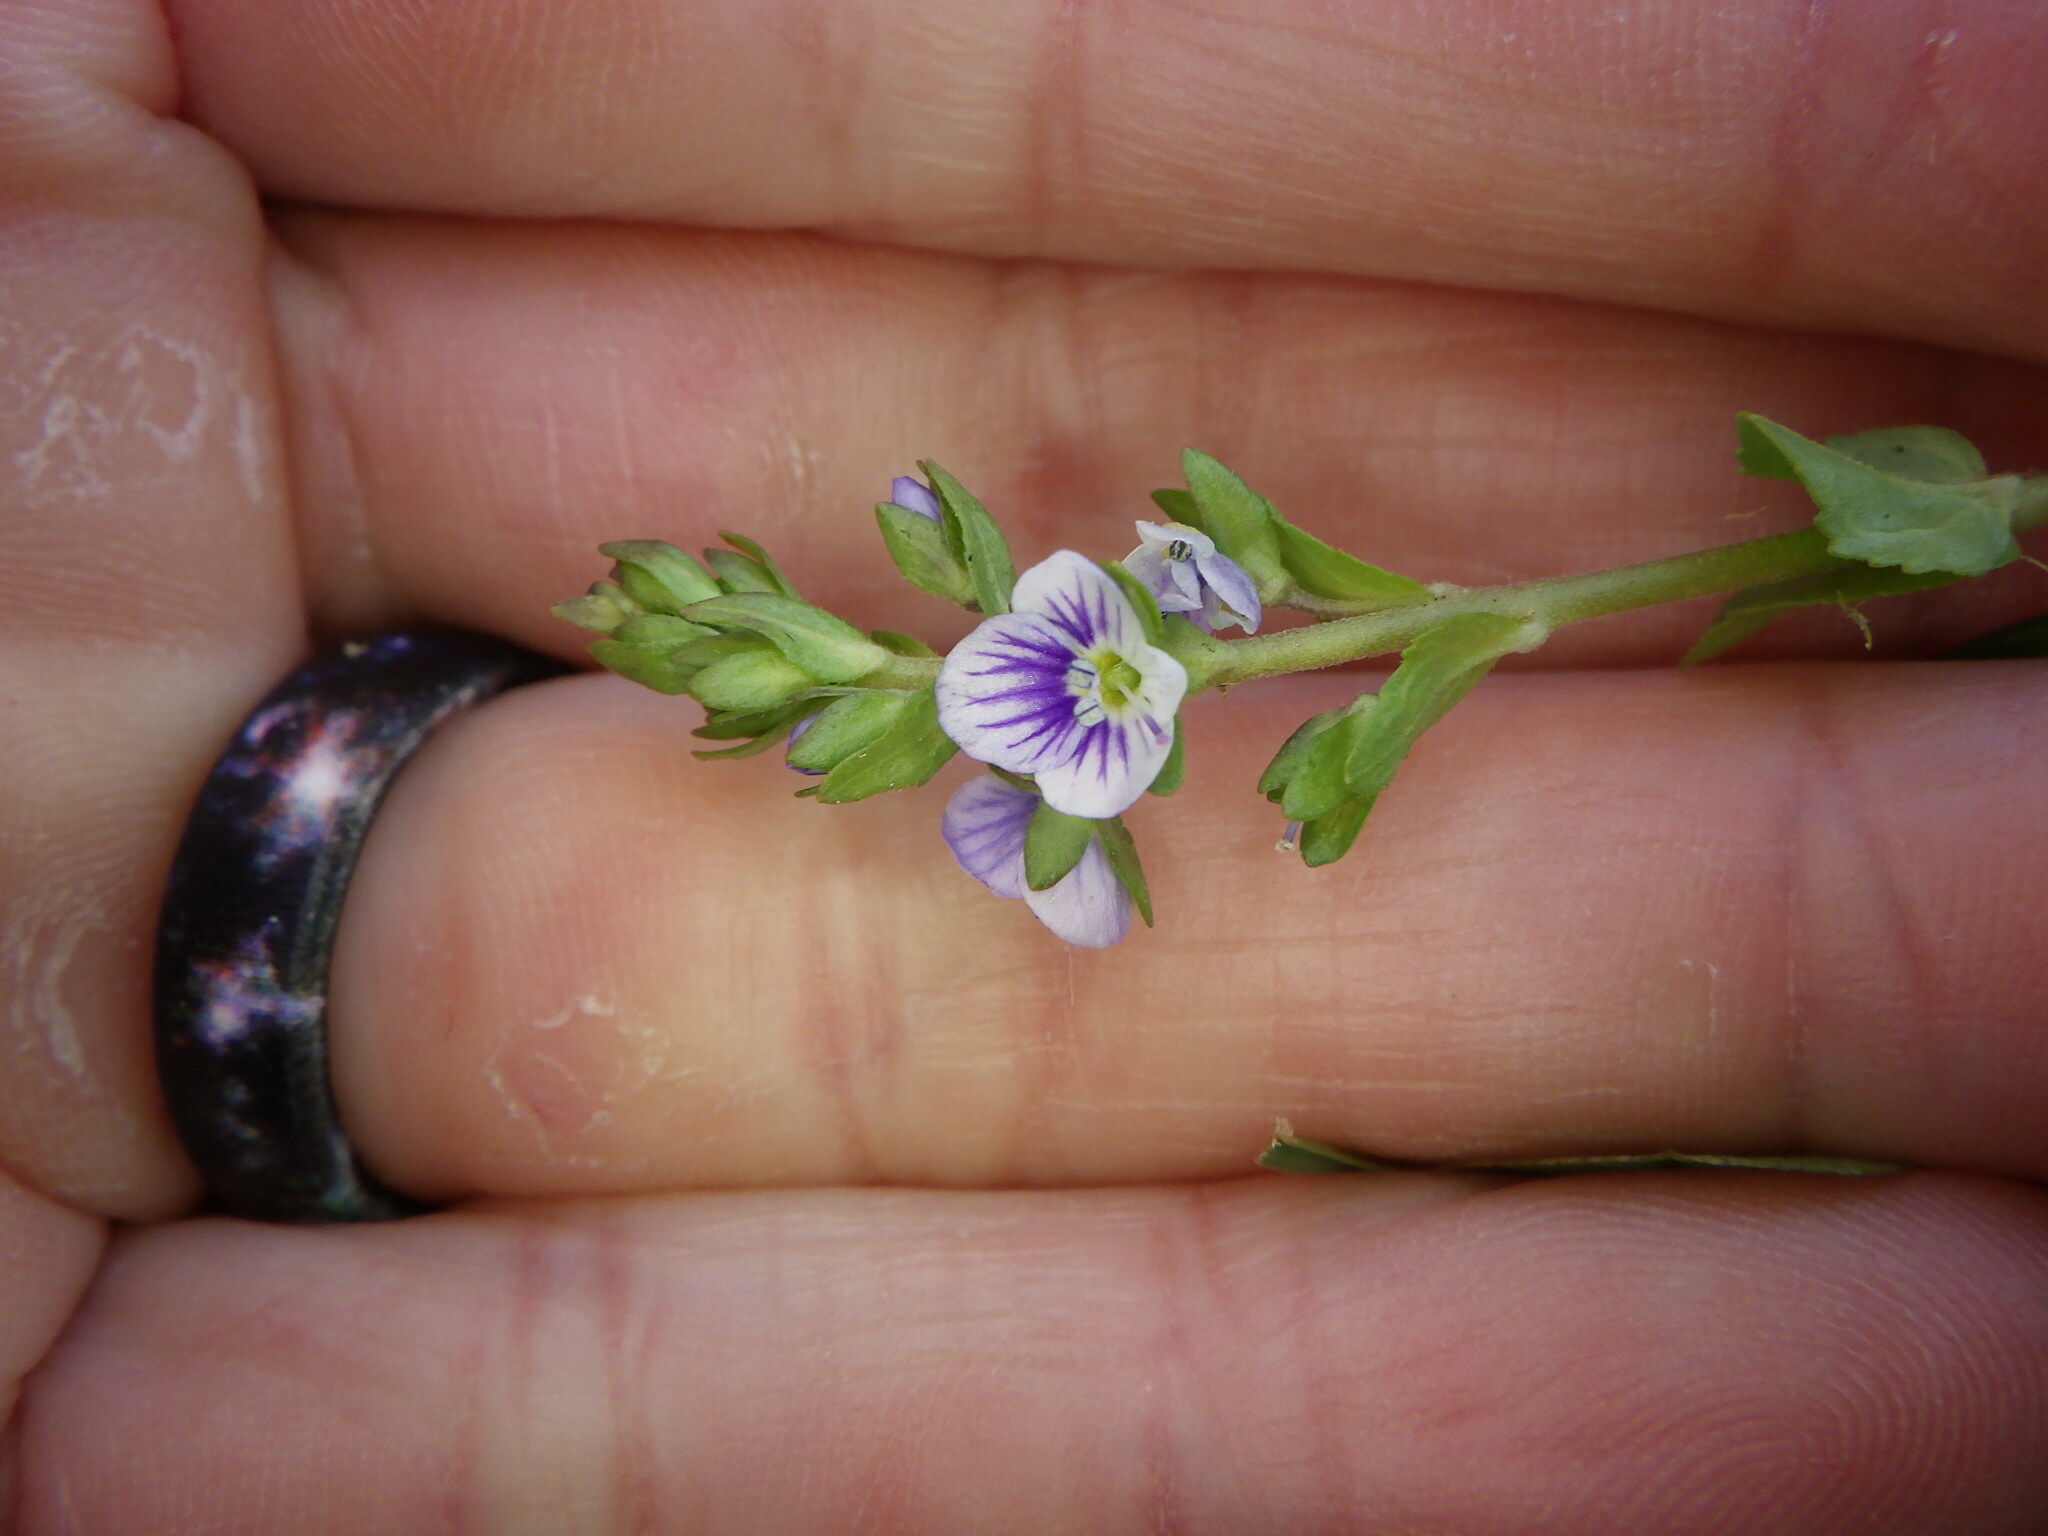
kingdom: Plantae
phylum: Tracheophyta
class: Magnoliopsida
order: Lamiales
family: Plantaginaceae
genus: Veronica
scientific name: Veronica serpyllifolia
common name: Thyme-leaved speedwell
